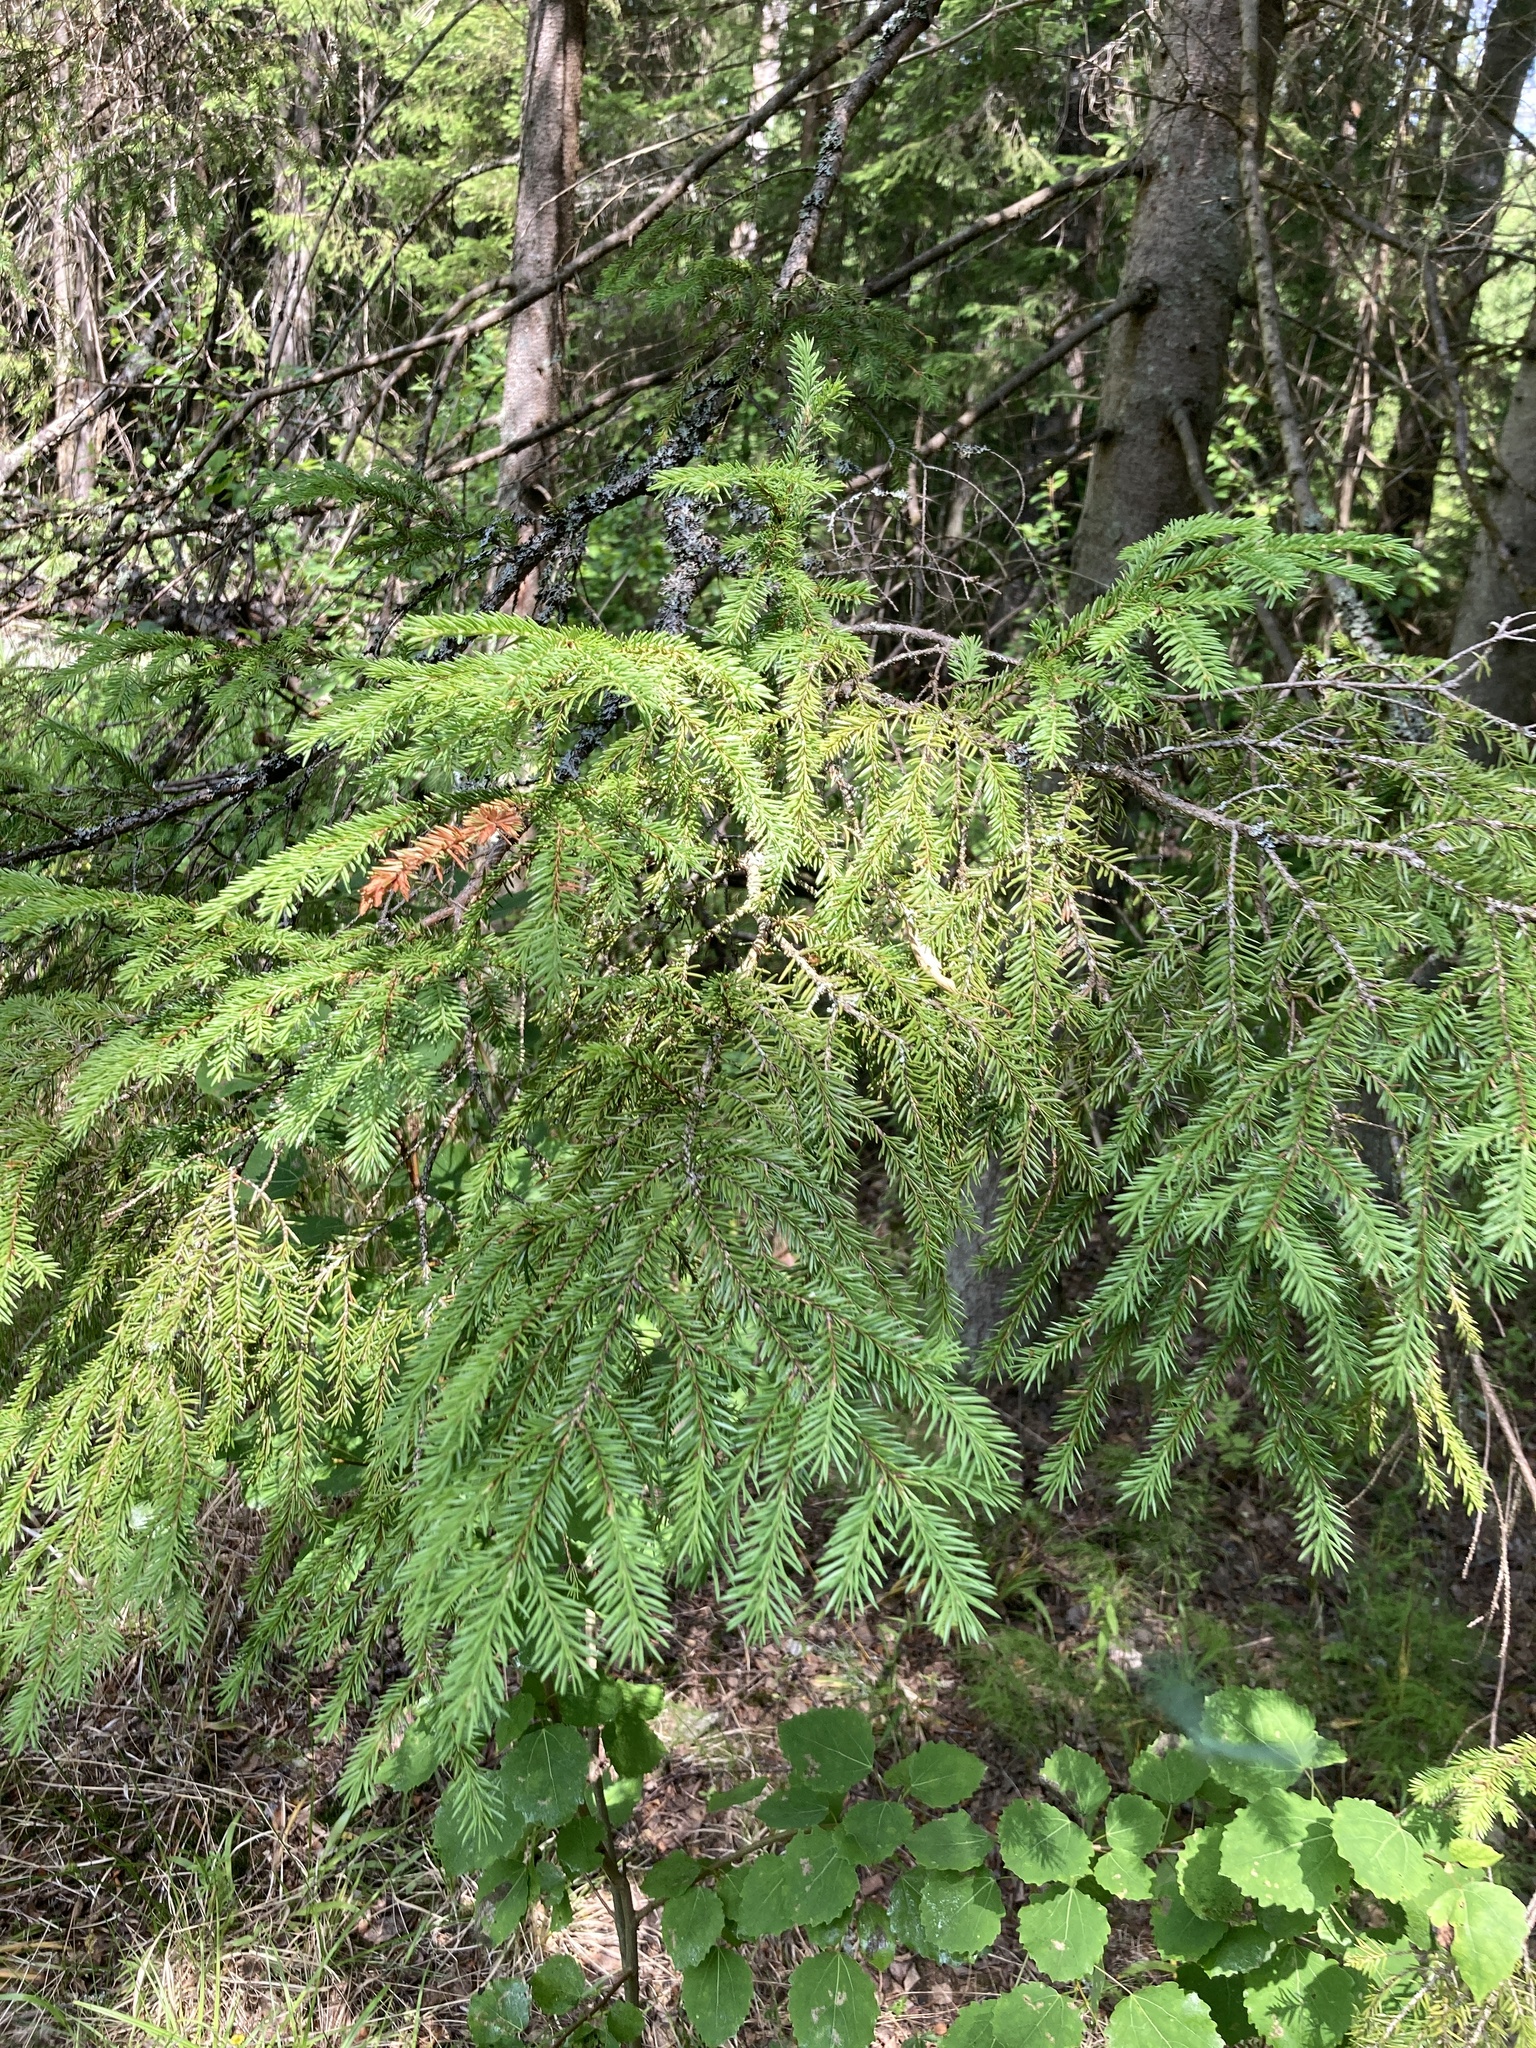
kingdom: Plantae
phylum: Tracheophyta
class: Pinopsida
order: Pinales
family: Pinaceae
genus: Picea
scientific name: Picea abies
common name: Norway spruce
